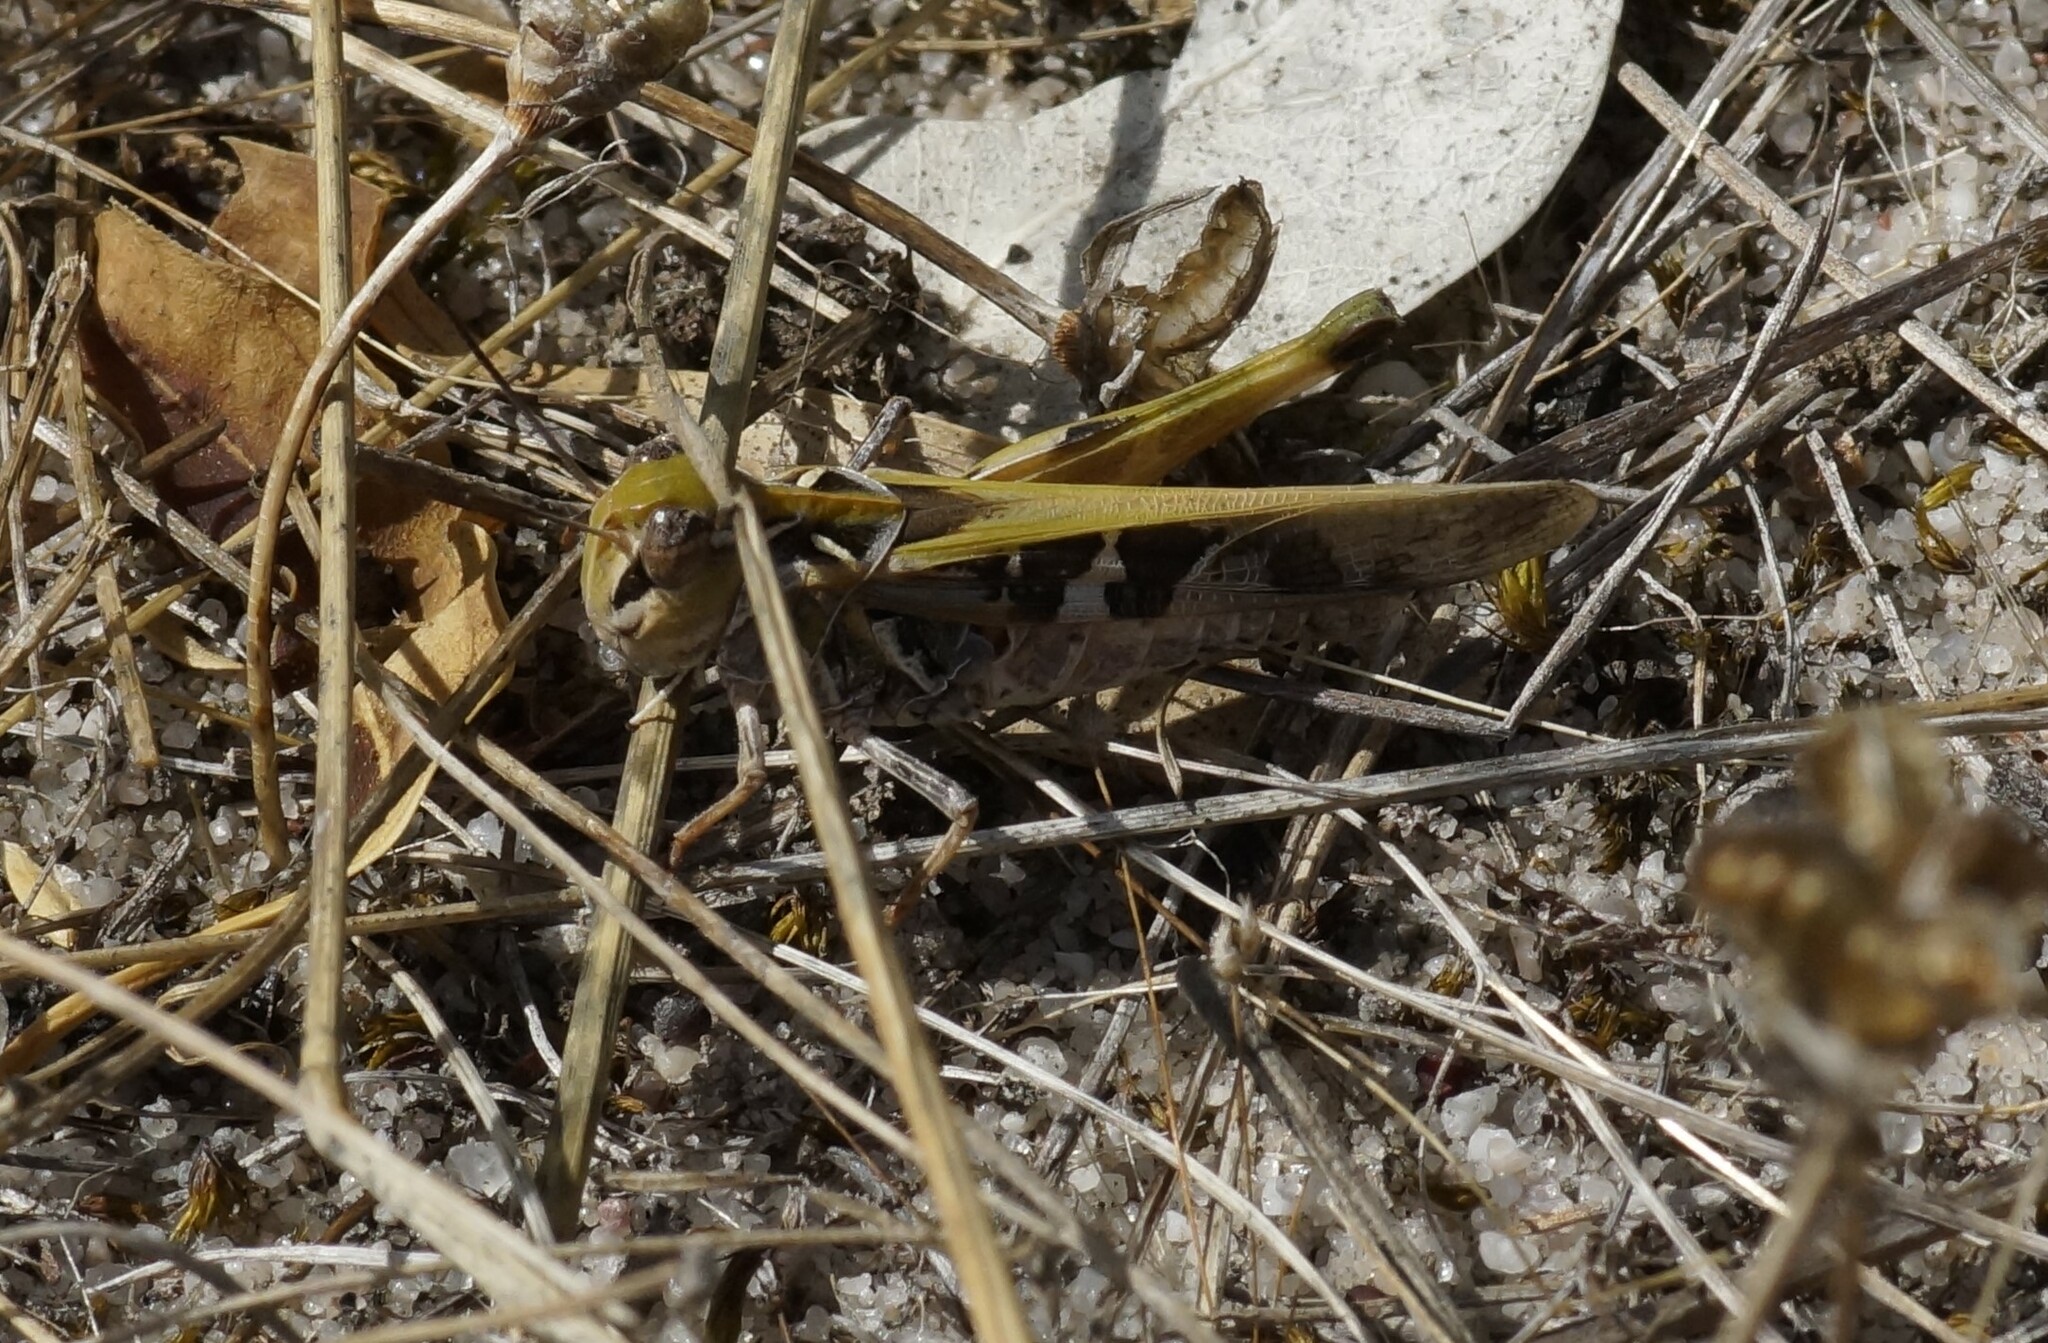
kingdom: Animalia
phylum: Arthropoda
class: Insecta
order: Orthoptera
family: Acrididae
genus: Oedaleus
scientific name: Oedaleus australis
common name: Eastern oedaleus
